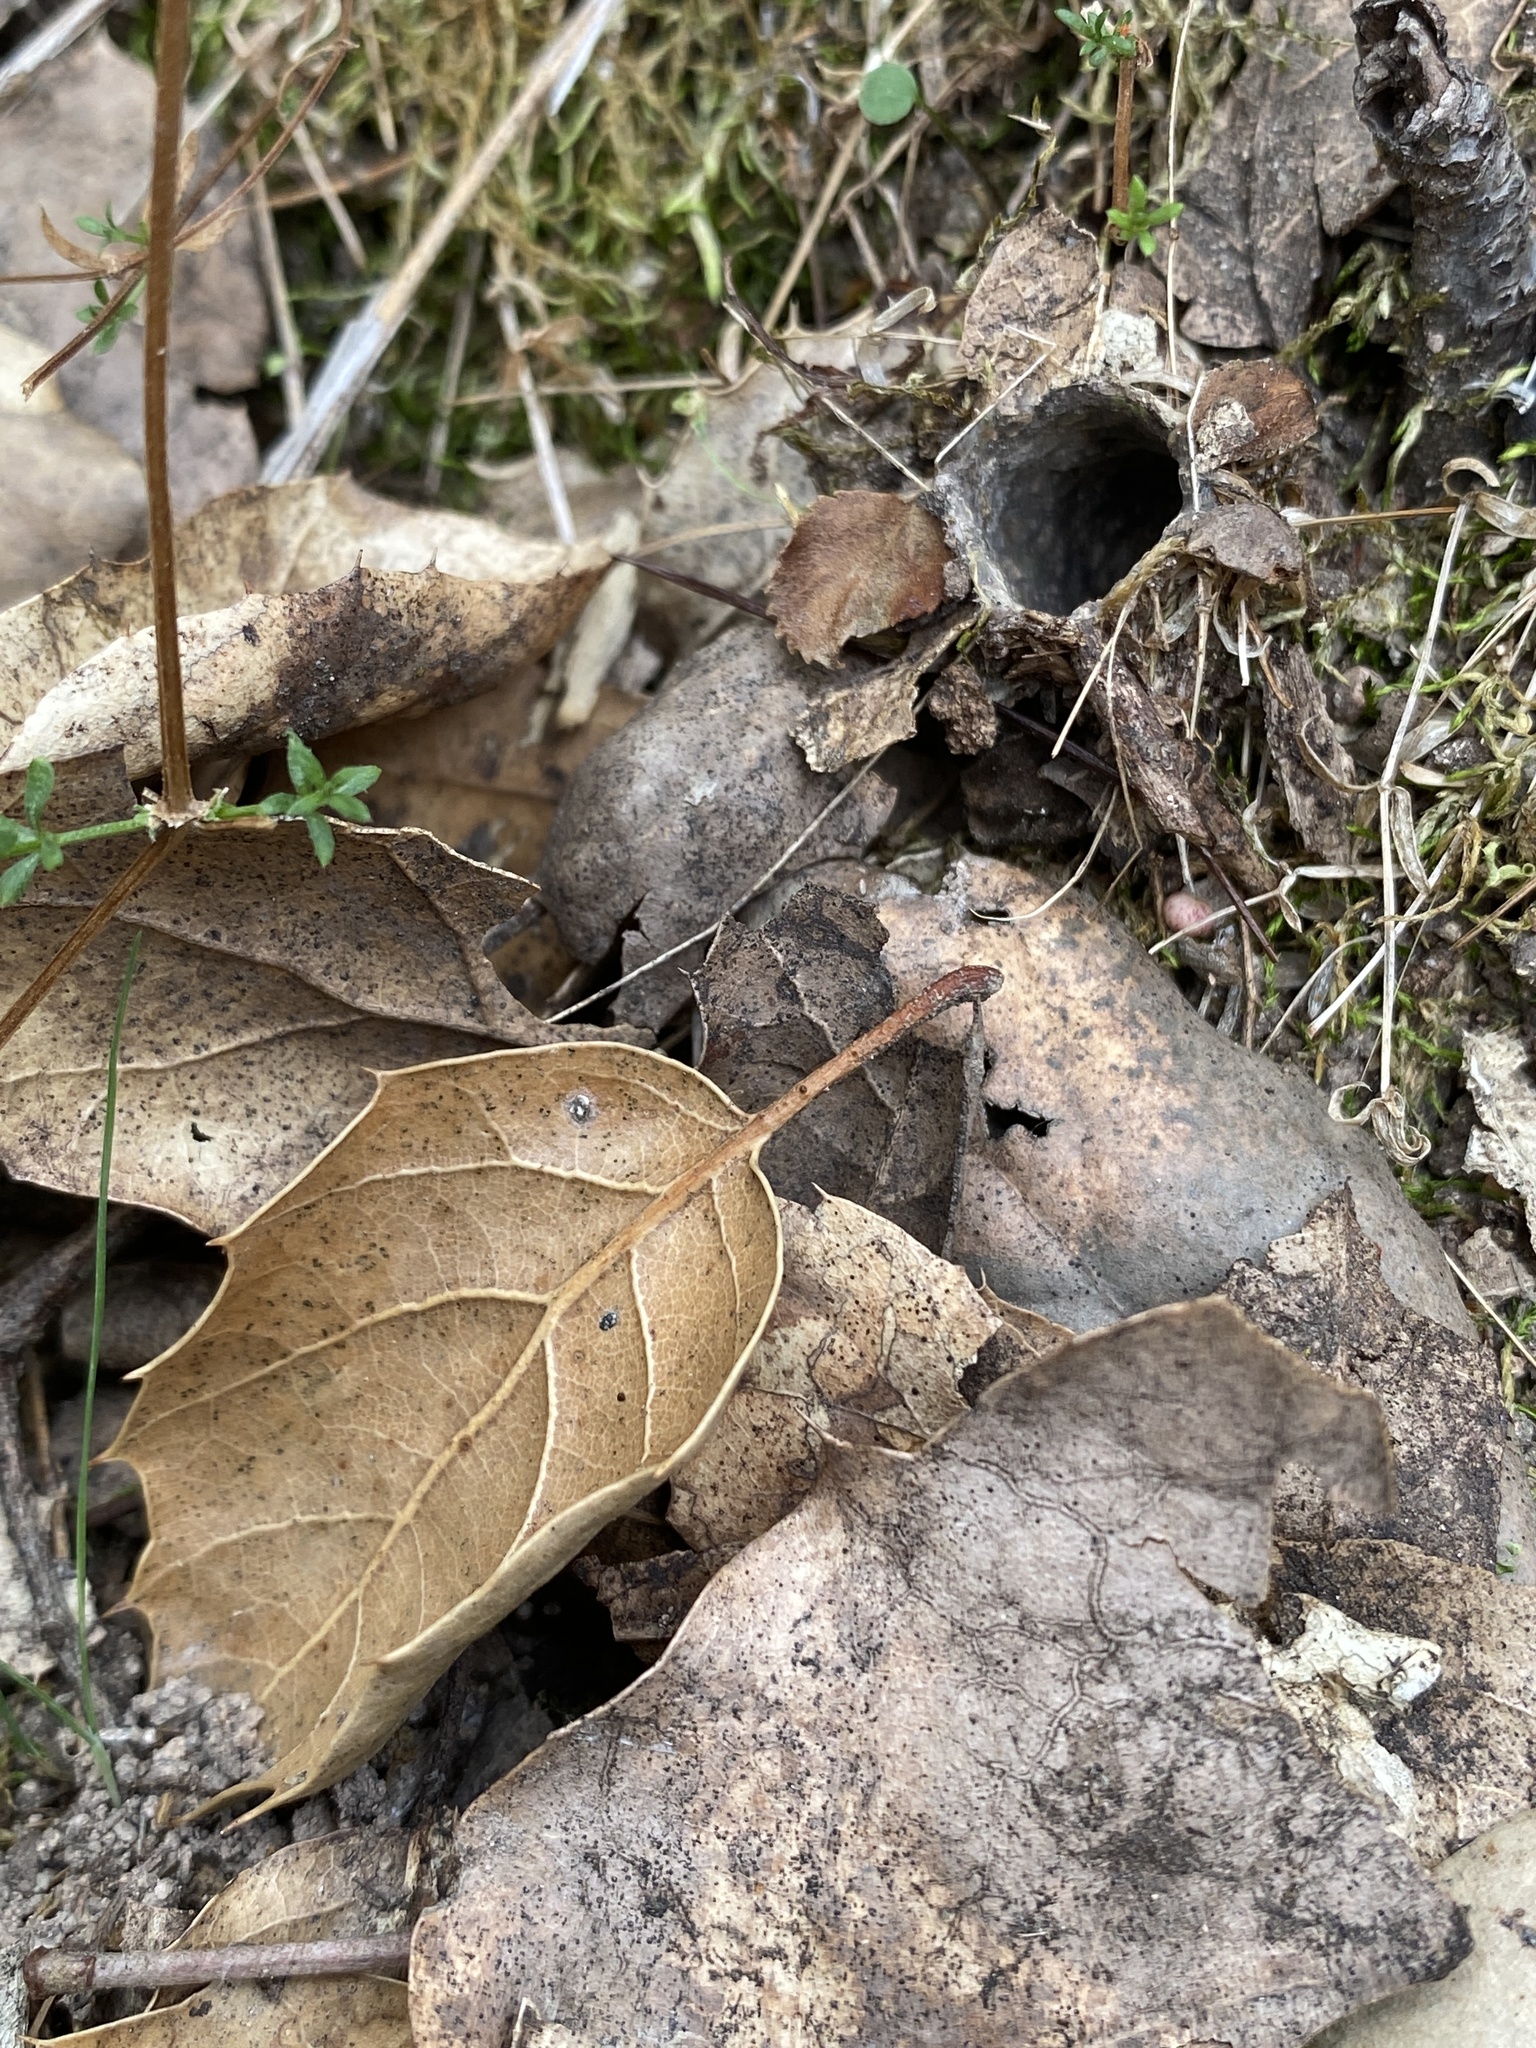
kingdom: Animalia
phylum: Arthropoda
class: Arachnida
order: Araneae
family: Antrodiaetidae
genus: Atypoides
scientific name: Atypoides riversi
